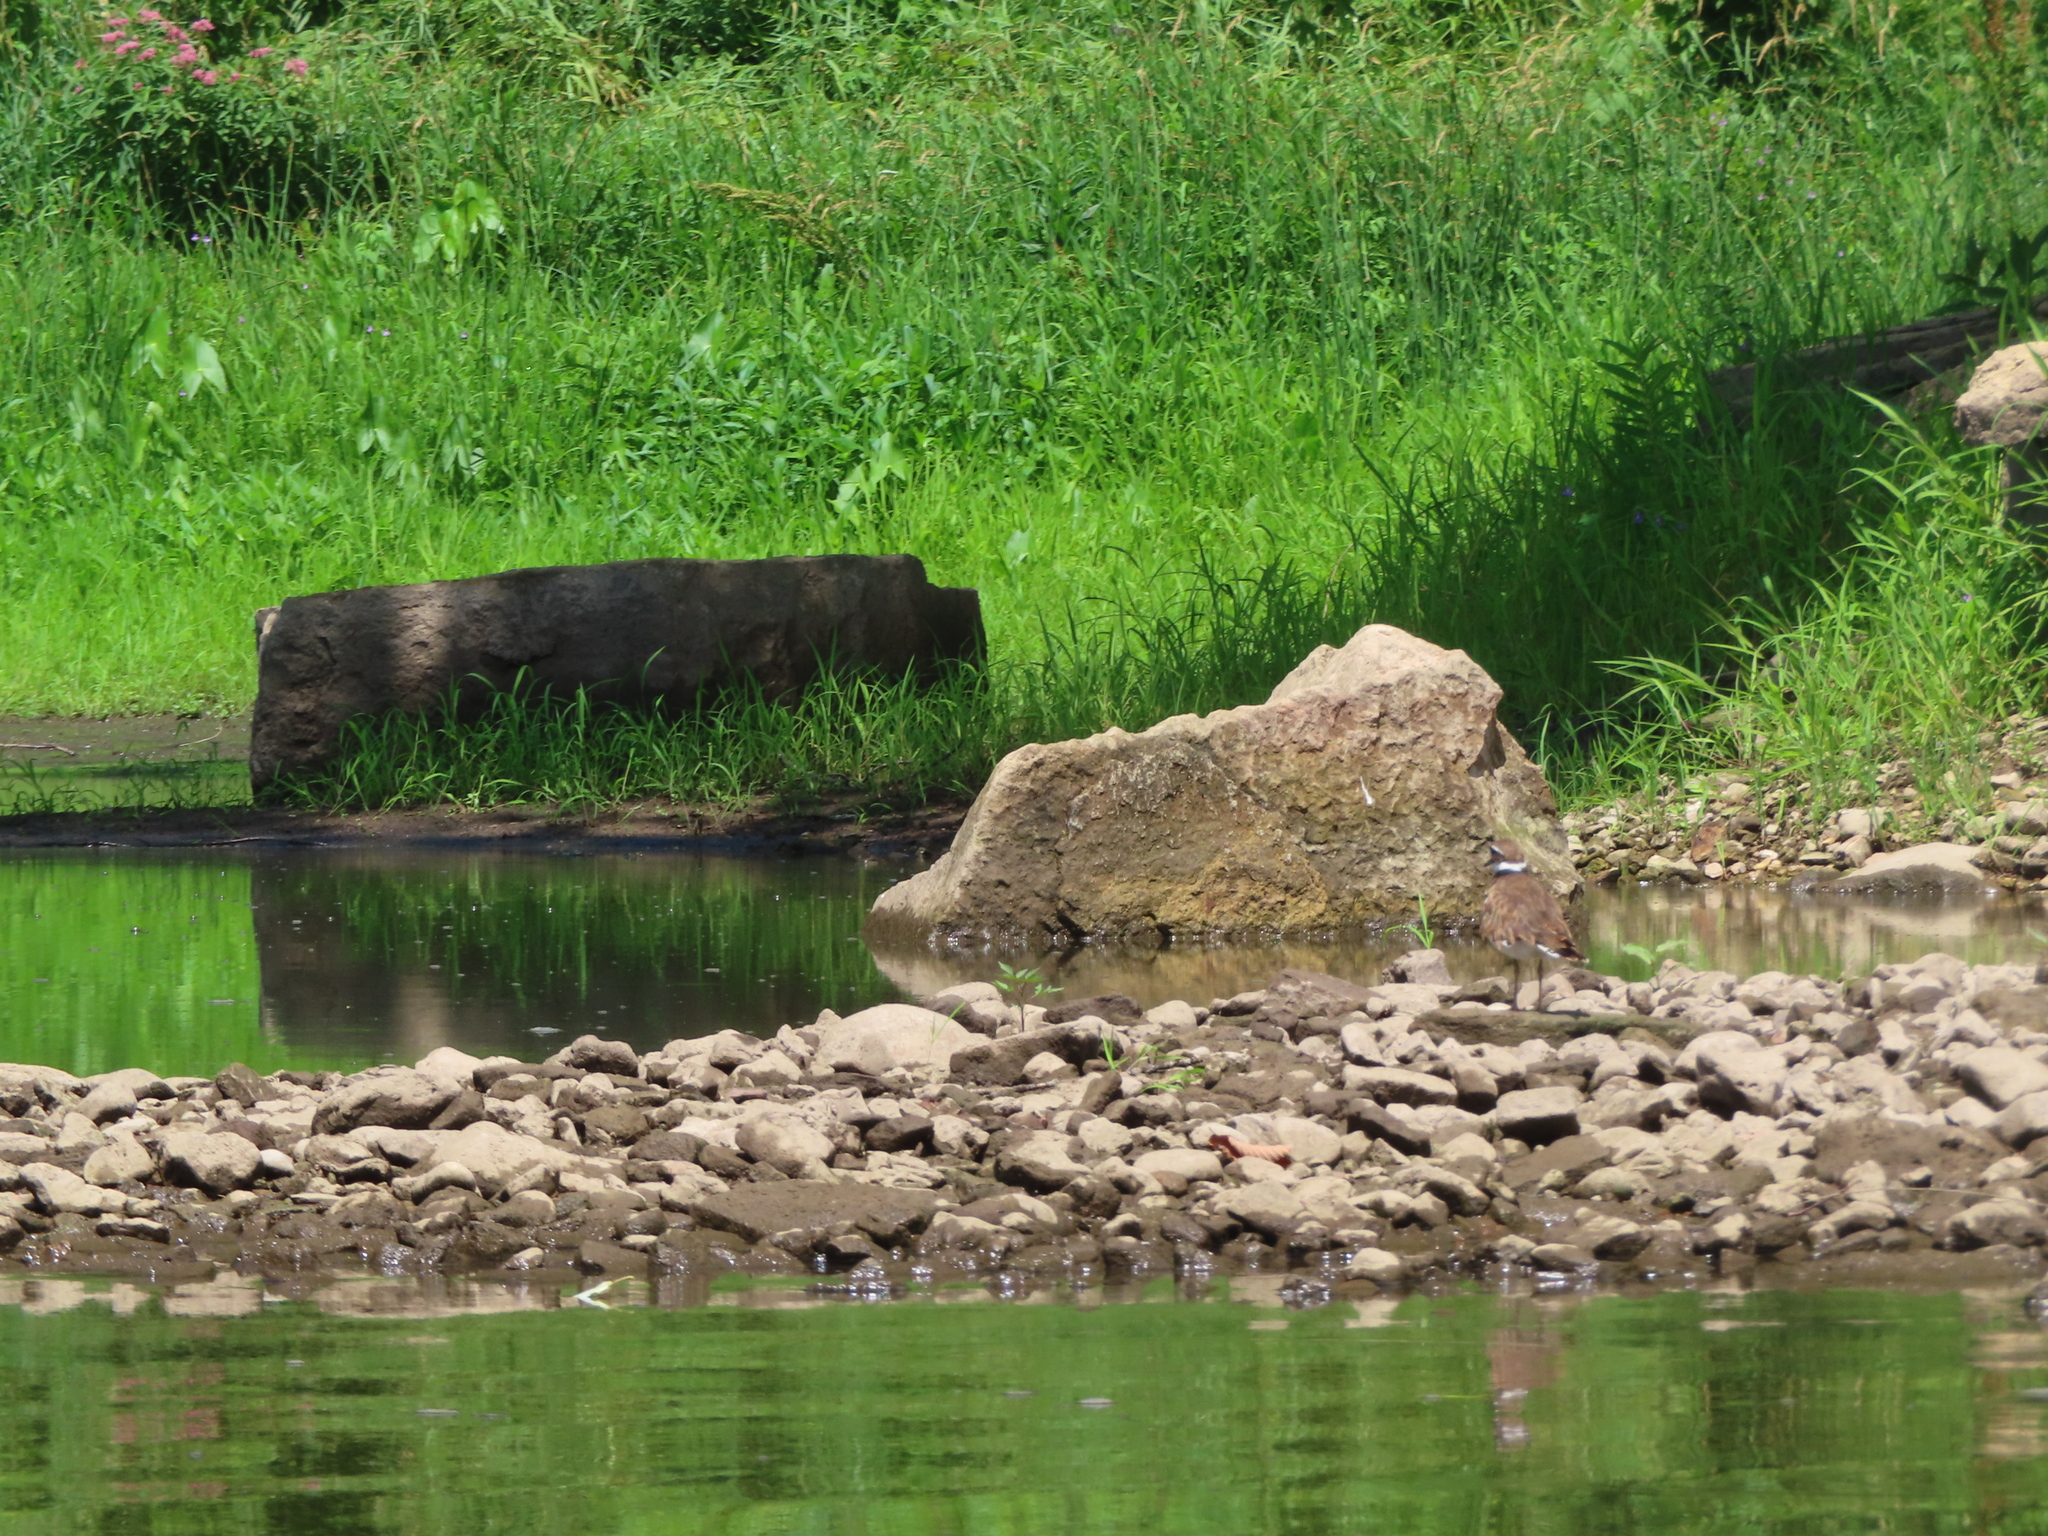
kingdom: Animalia
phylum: Chordata
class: Aves
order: Charadriiformes
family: Charadriidae
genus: Charadrius
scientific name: Charadrius vociferus
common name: Killdeer
